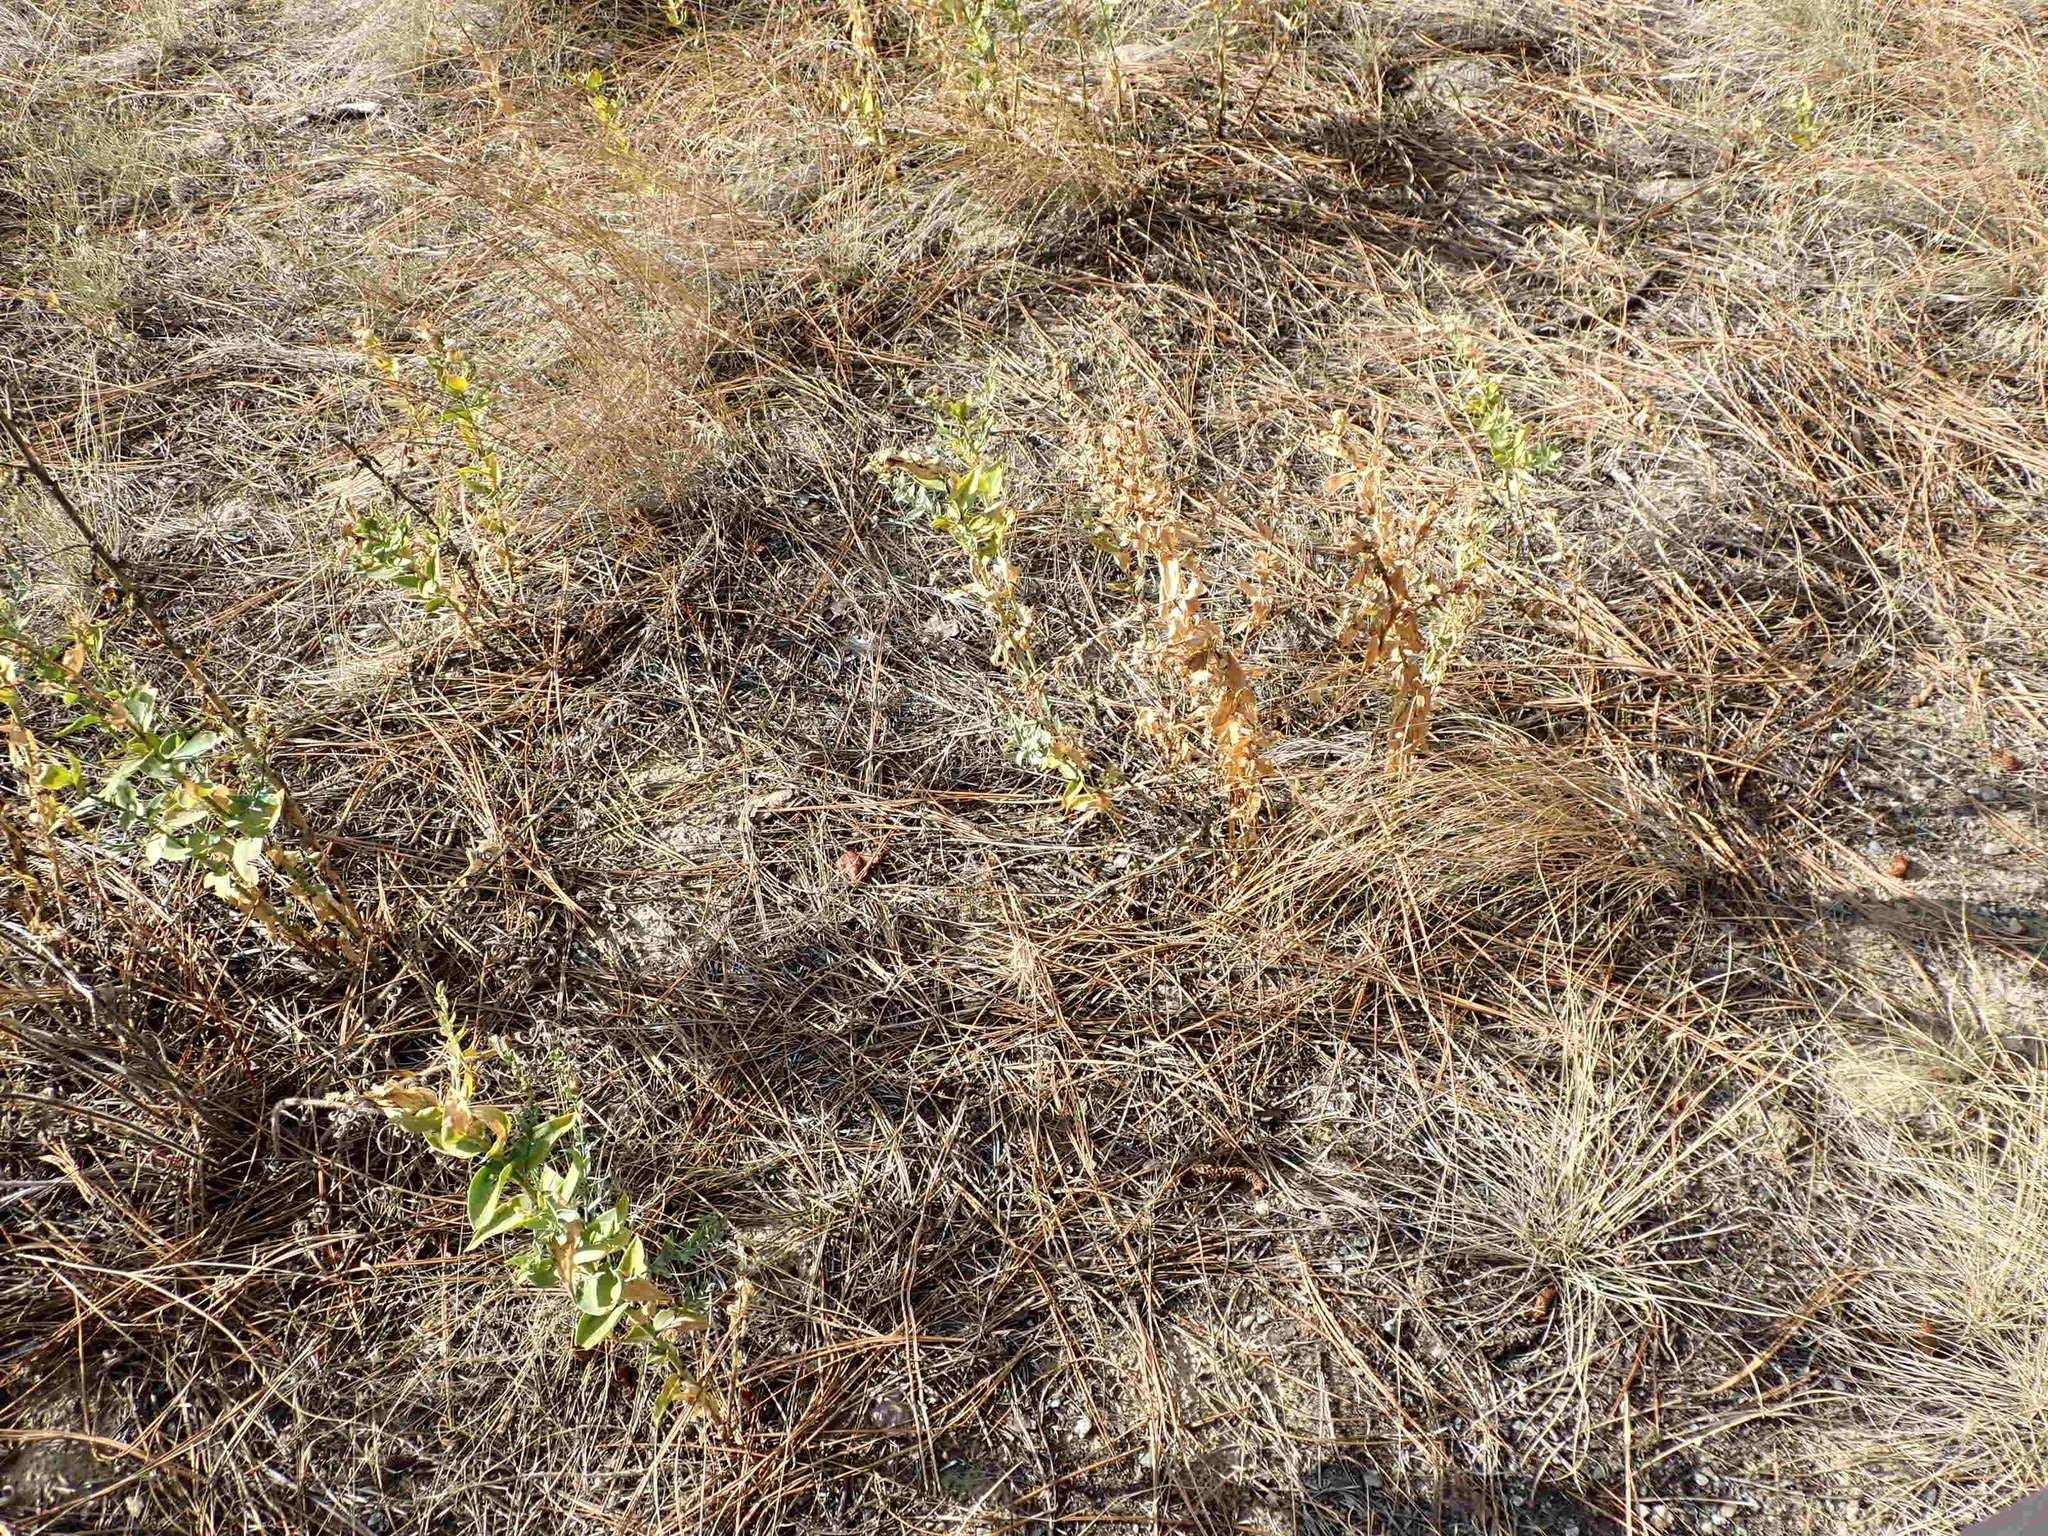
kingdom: Plantae
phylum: Tracheophyta
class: Magnoliopsida
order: Lamiales
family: Plantaginaceae
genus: Linaria
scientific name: Linaria dalmatica
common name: Dalmatian toadflax
